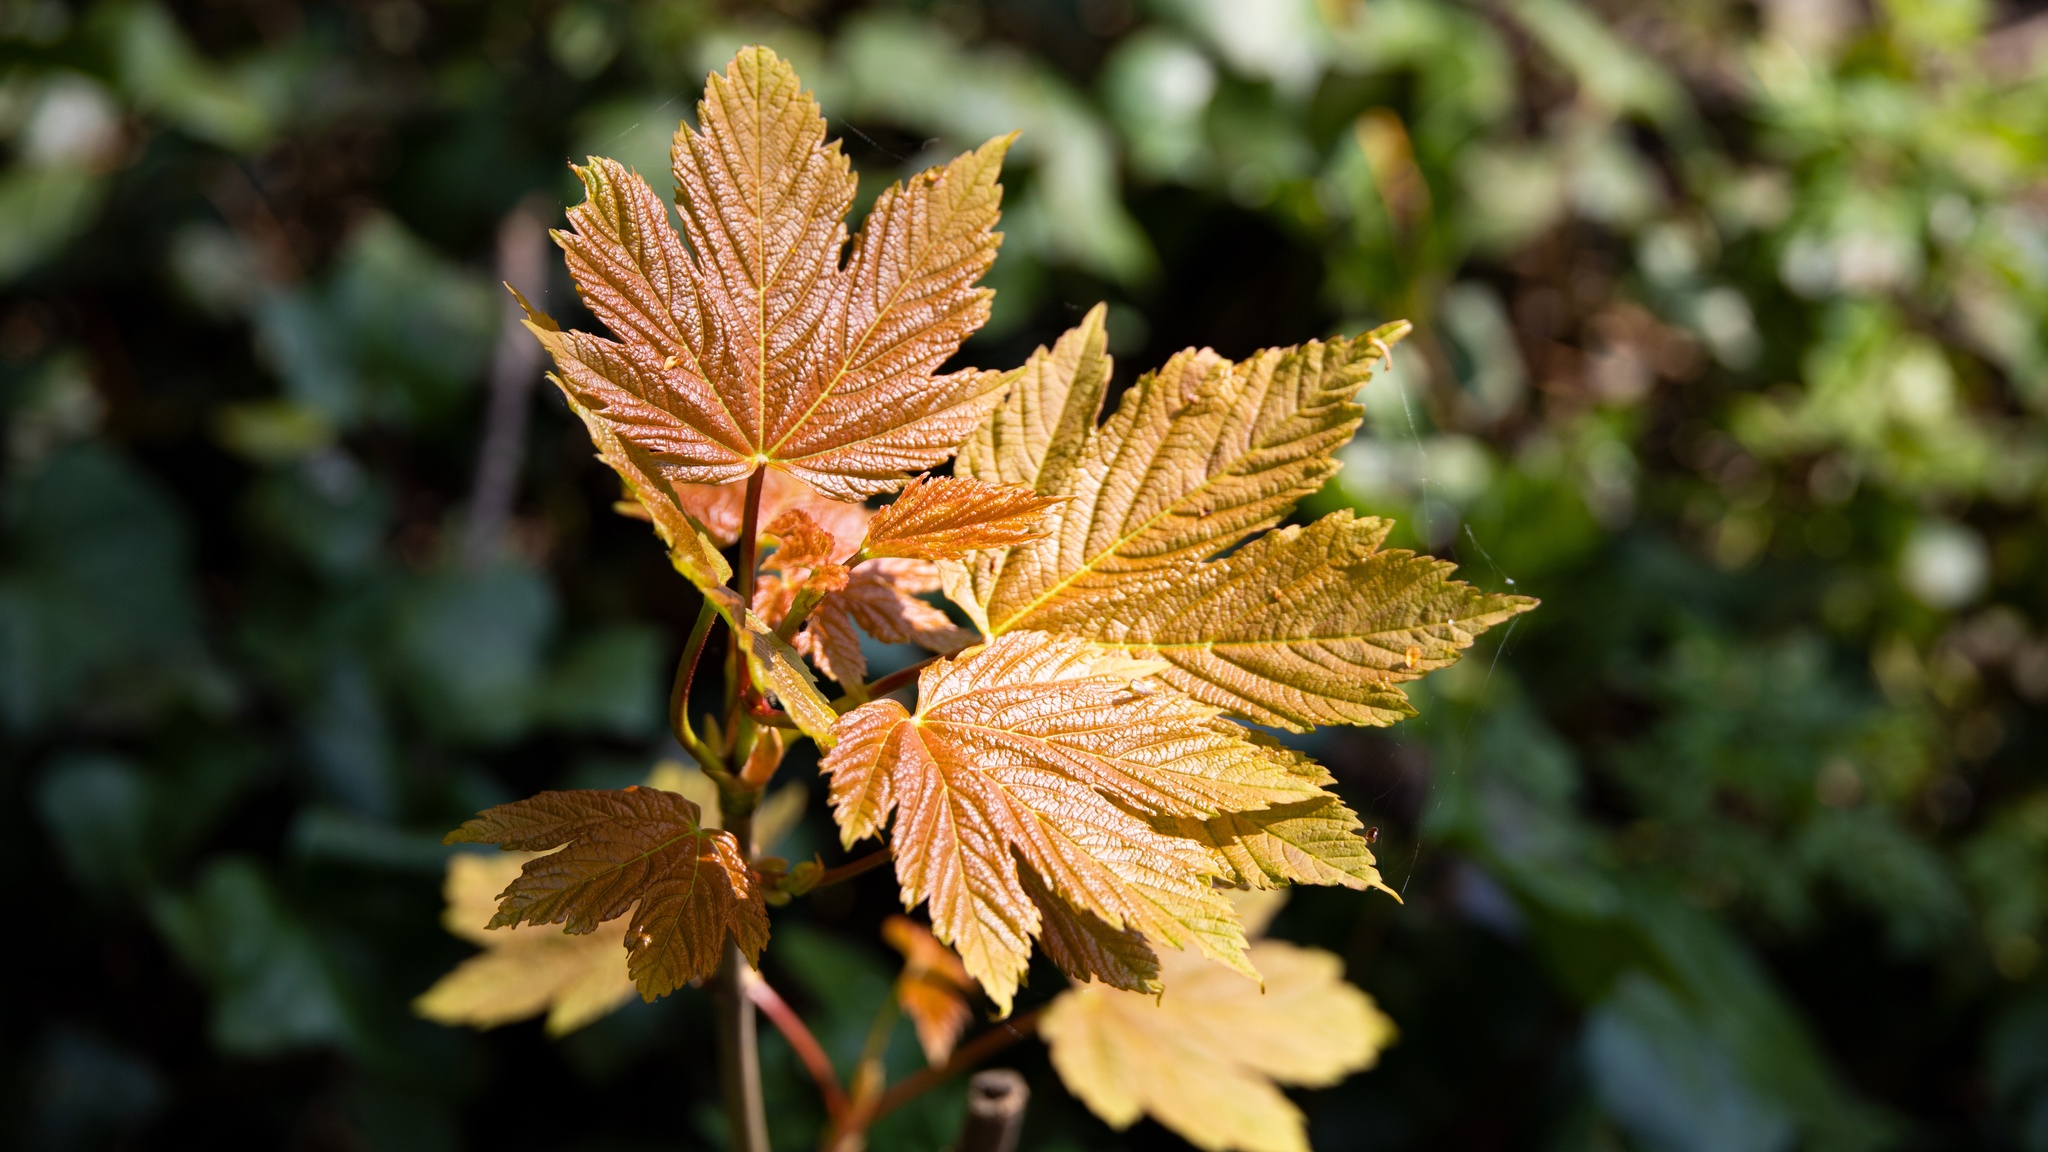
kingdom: Plantae
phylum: Tracheophyta
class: Magnoliopsida
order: Sapindales
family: Sapindaceae
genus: Acer
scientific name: Acer pseudoplatanus
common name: Sycamore
